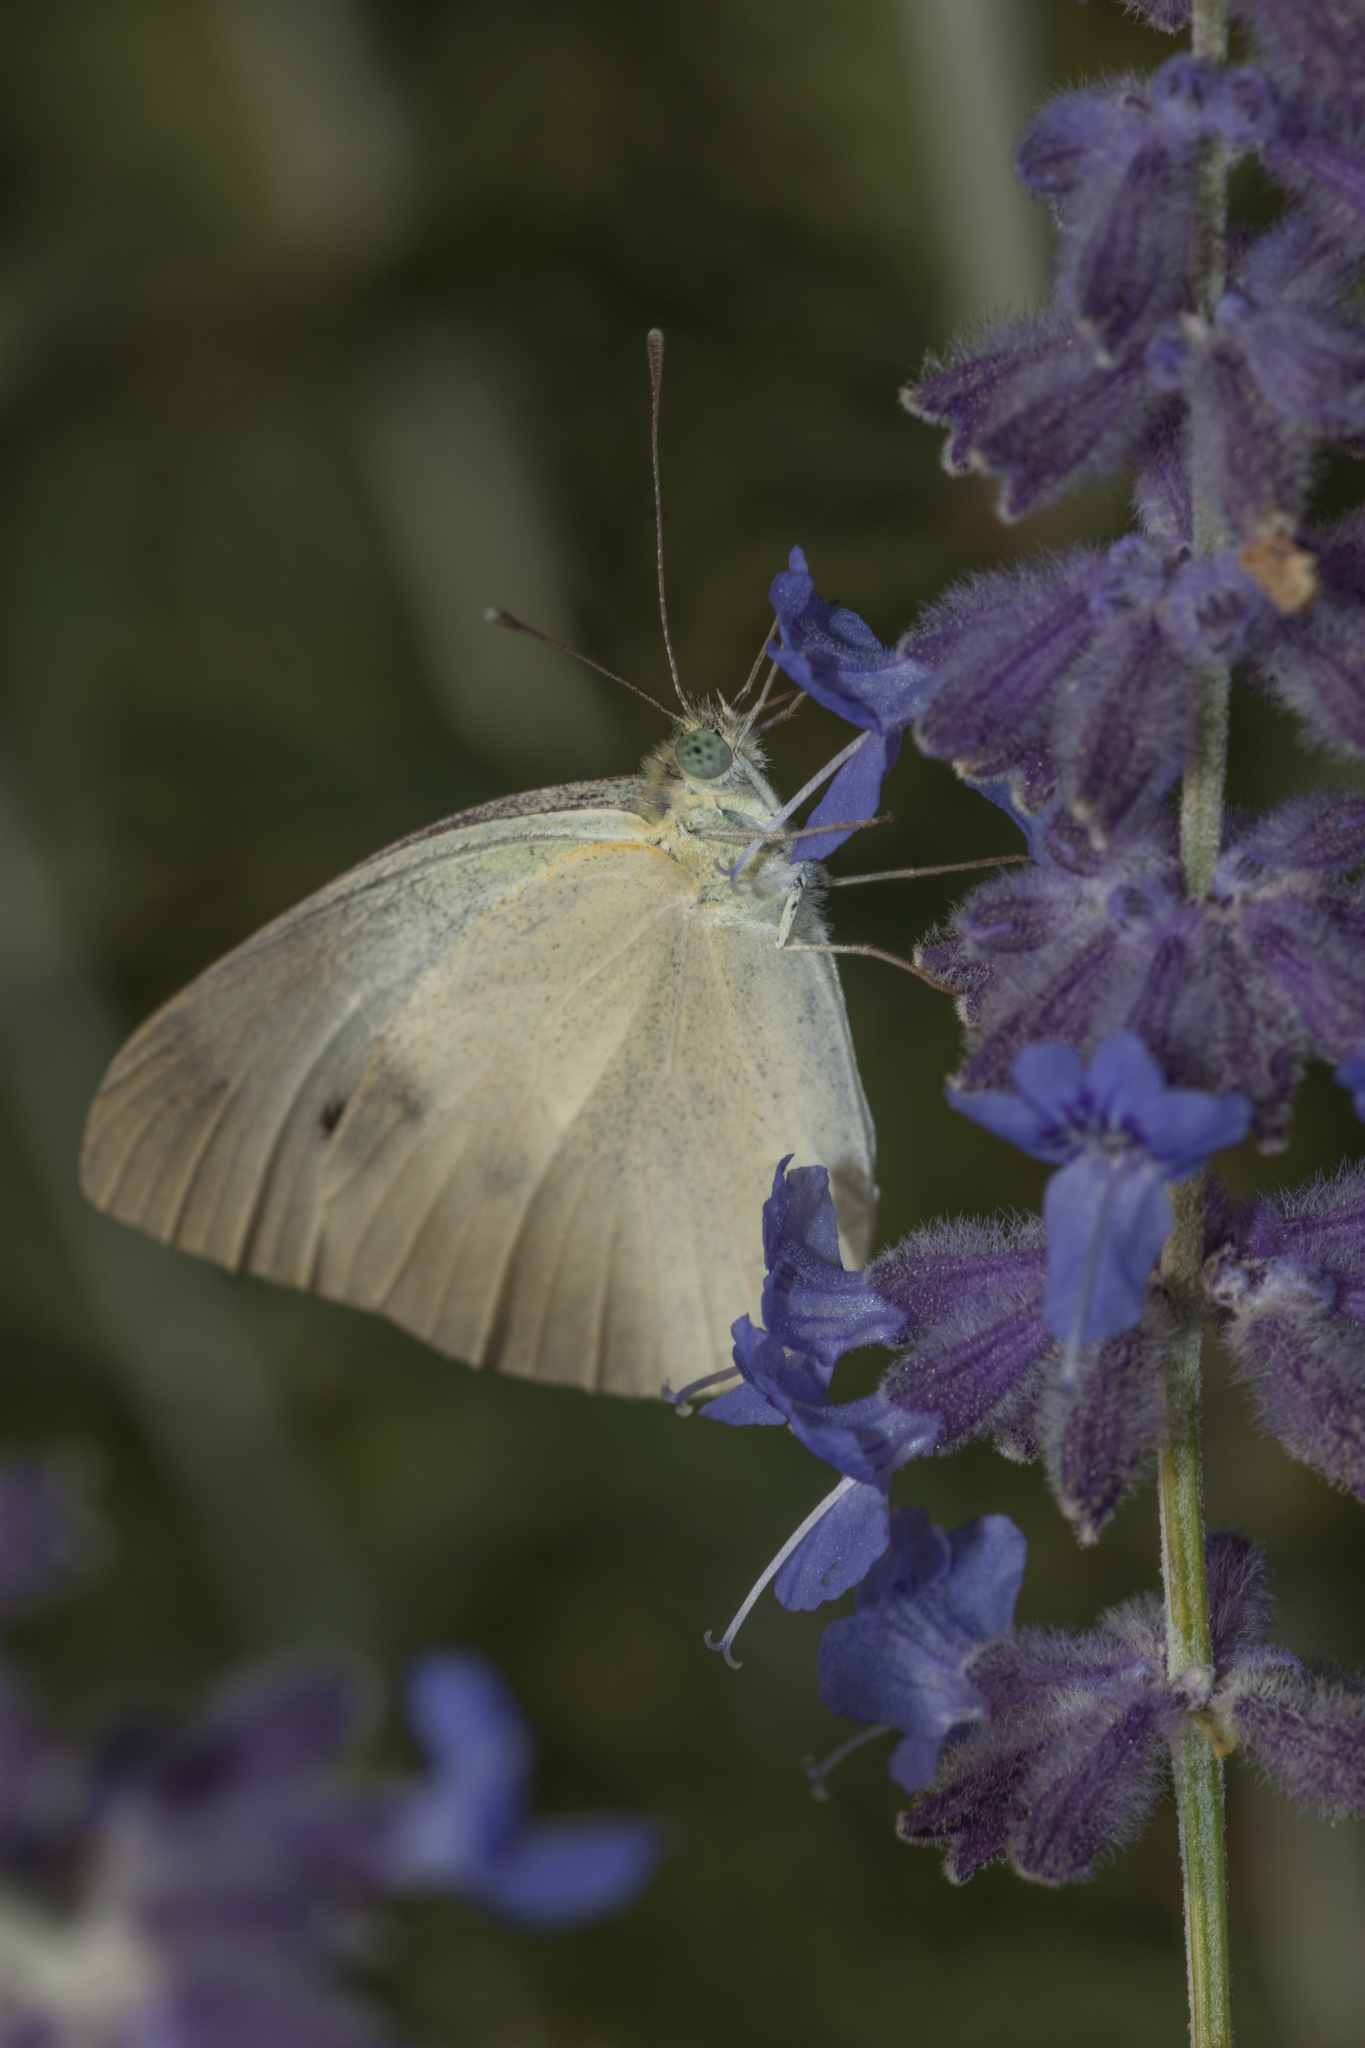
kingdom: Animalia
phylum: Arthropoda
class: Insecta
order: Lepidoptera
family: Pieridae
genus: Pieris
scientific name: Pieris rapae
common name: Small white
